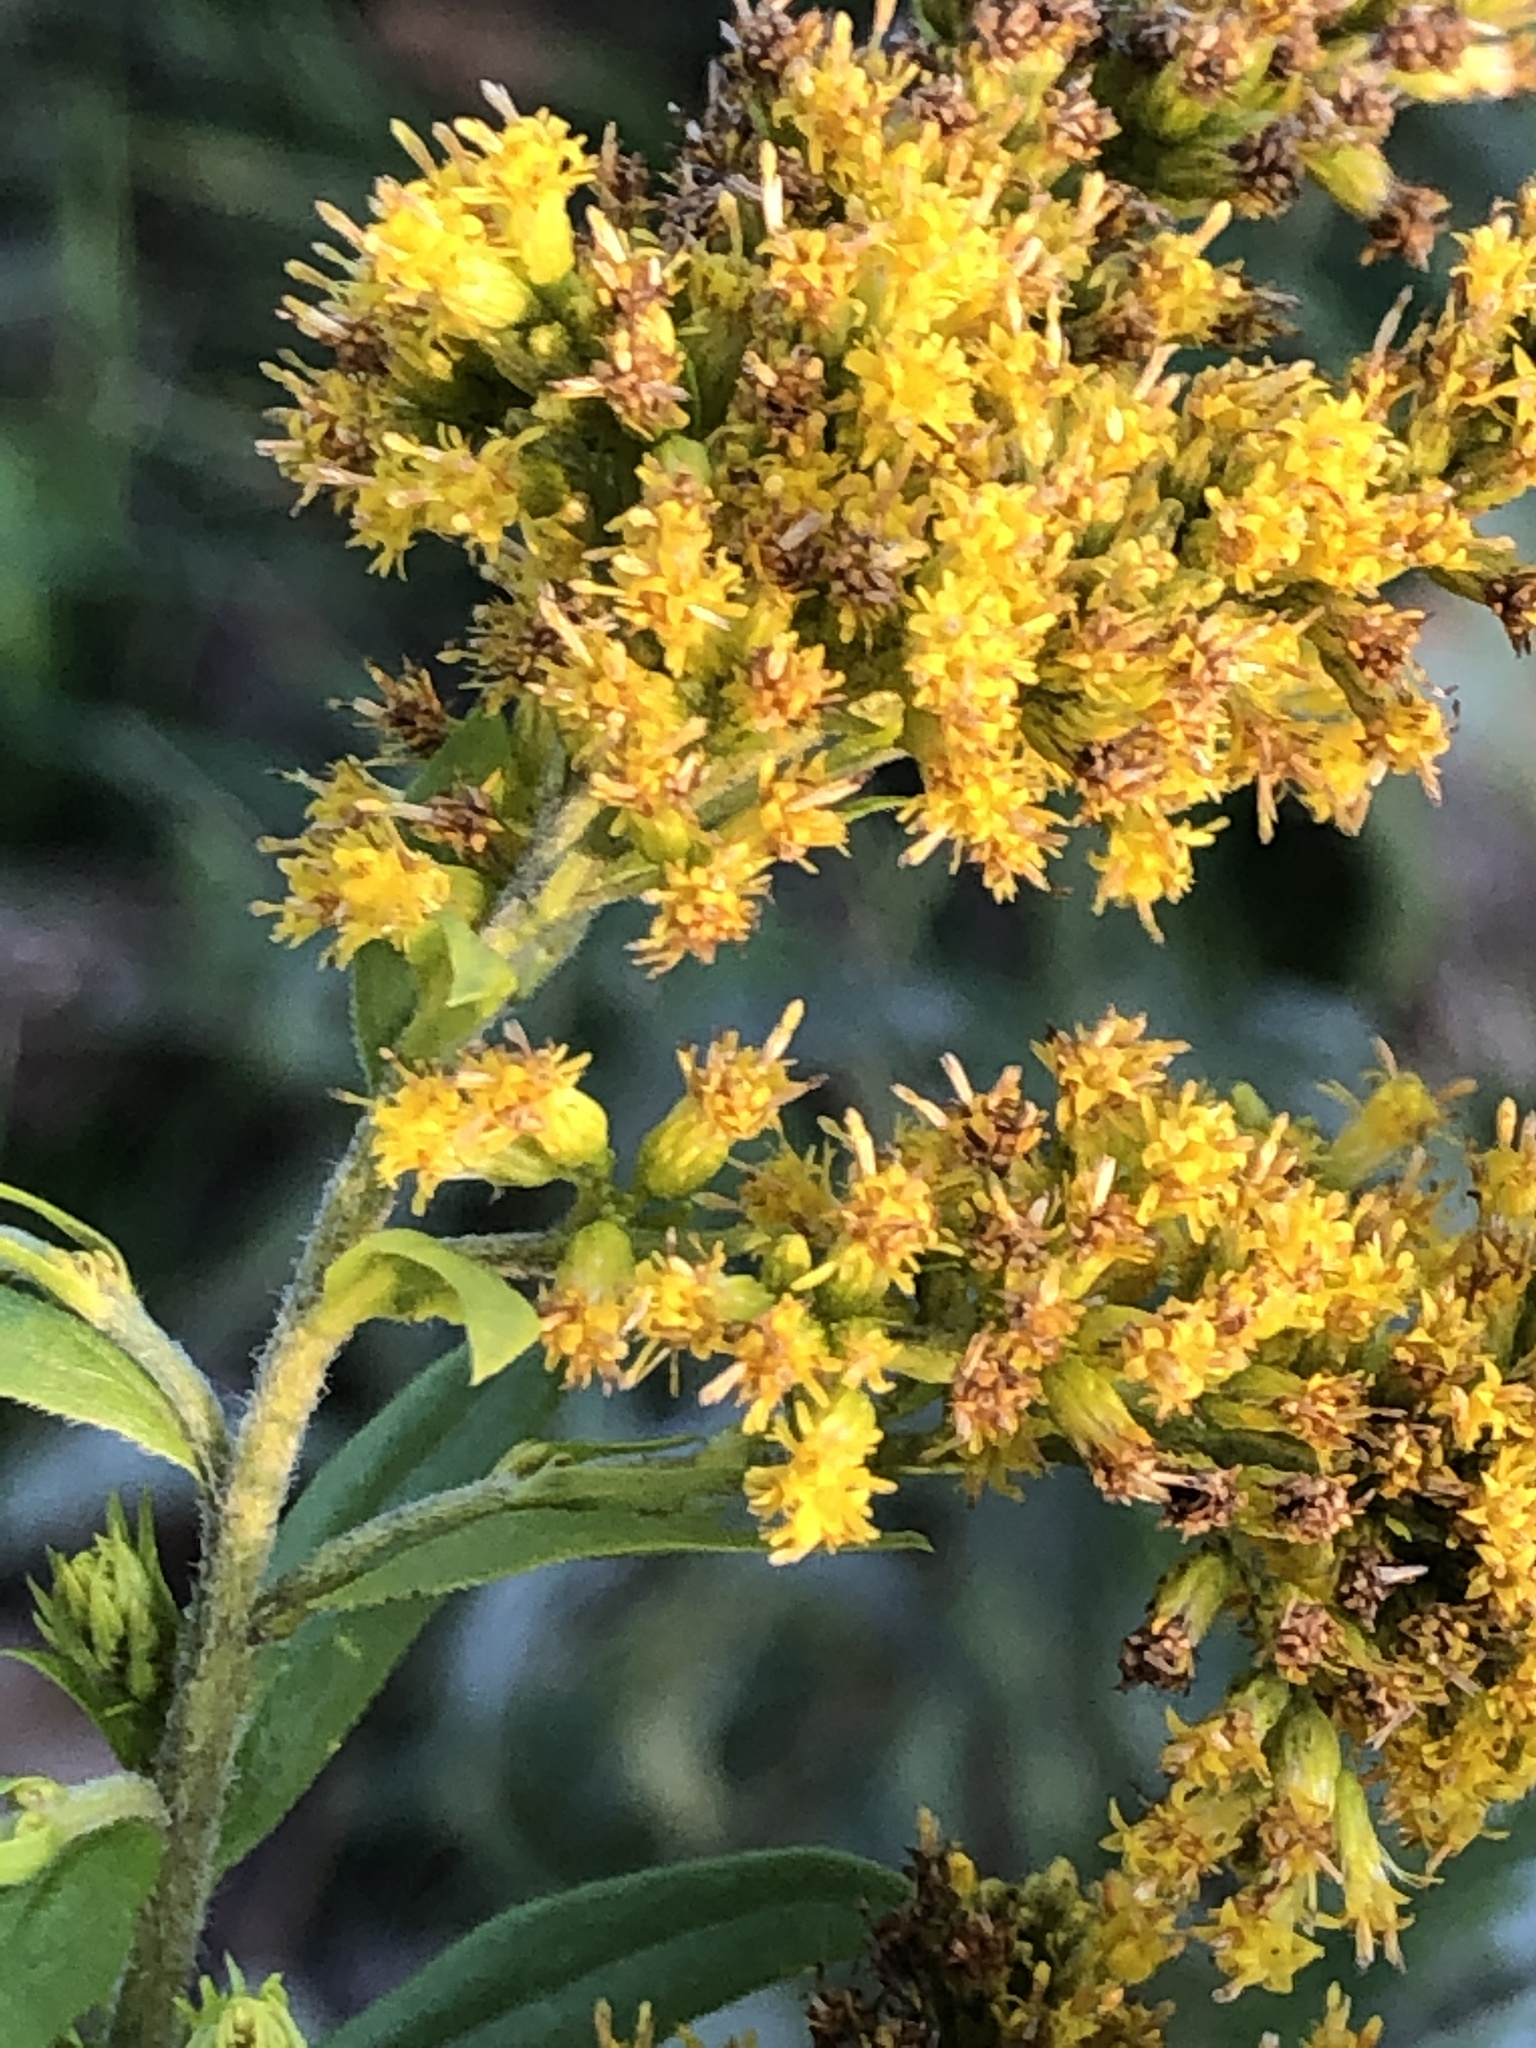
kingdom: Plantae
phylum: Tracheophyta
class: Magnoliopsida
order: Asterales
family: Asteraceae
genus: Solidago
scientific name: Solidago canadensis
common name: Canada goldenrod
